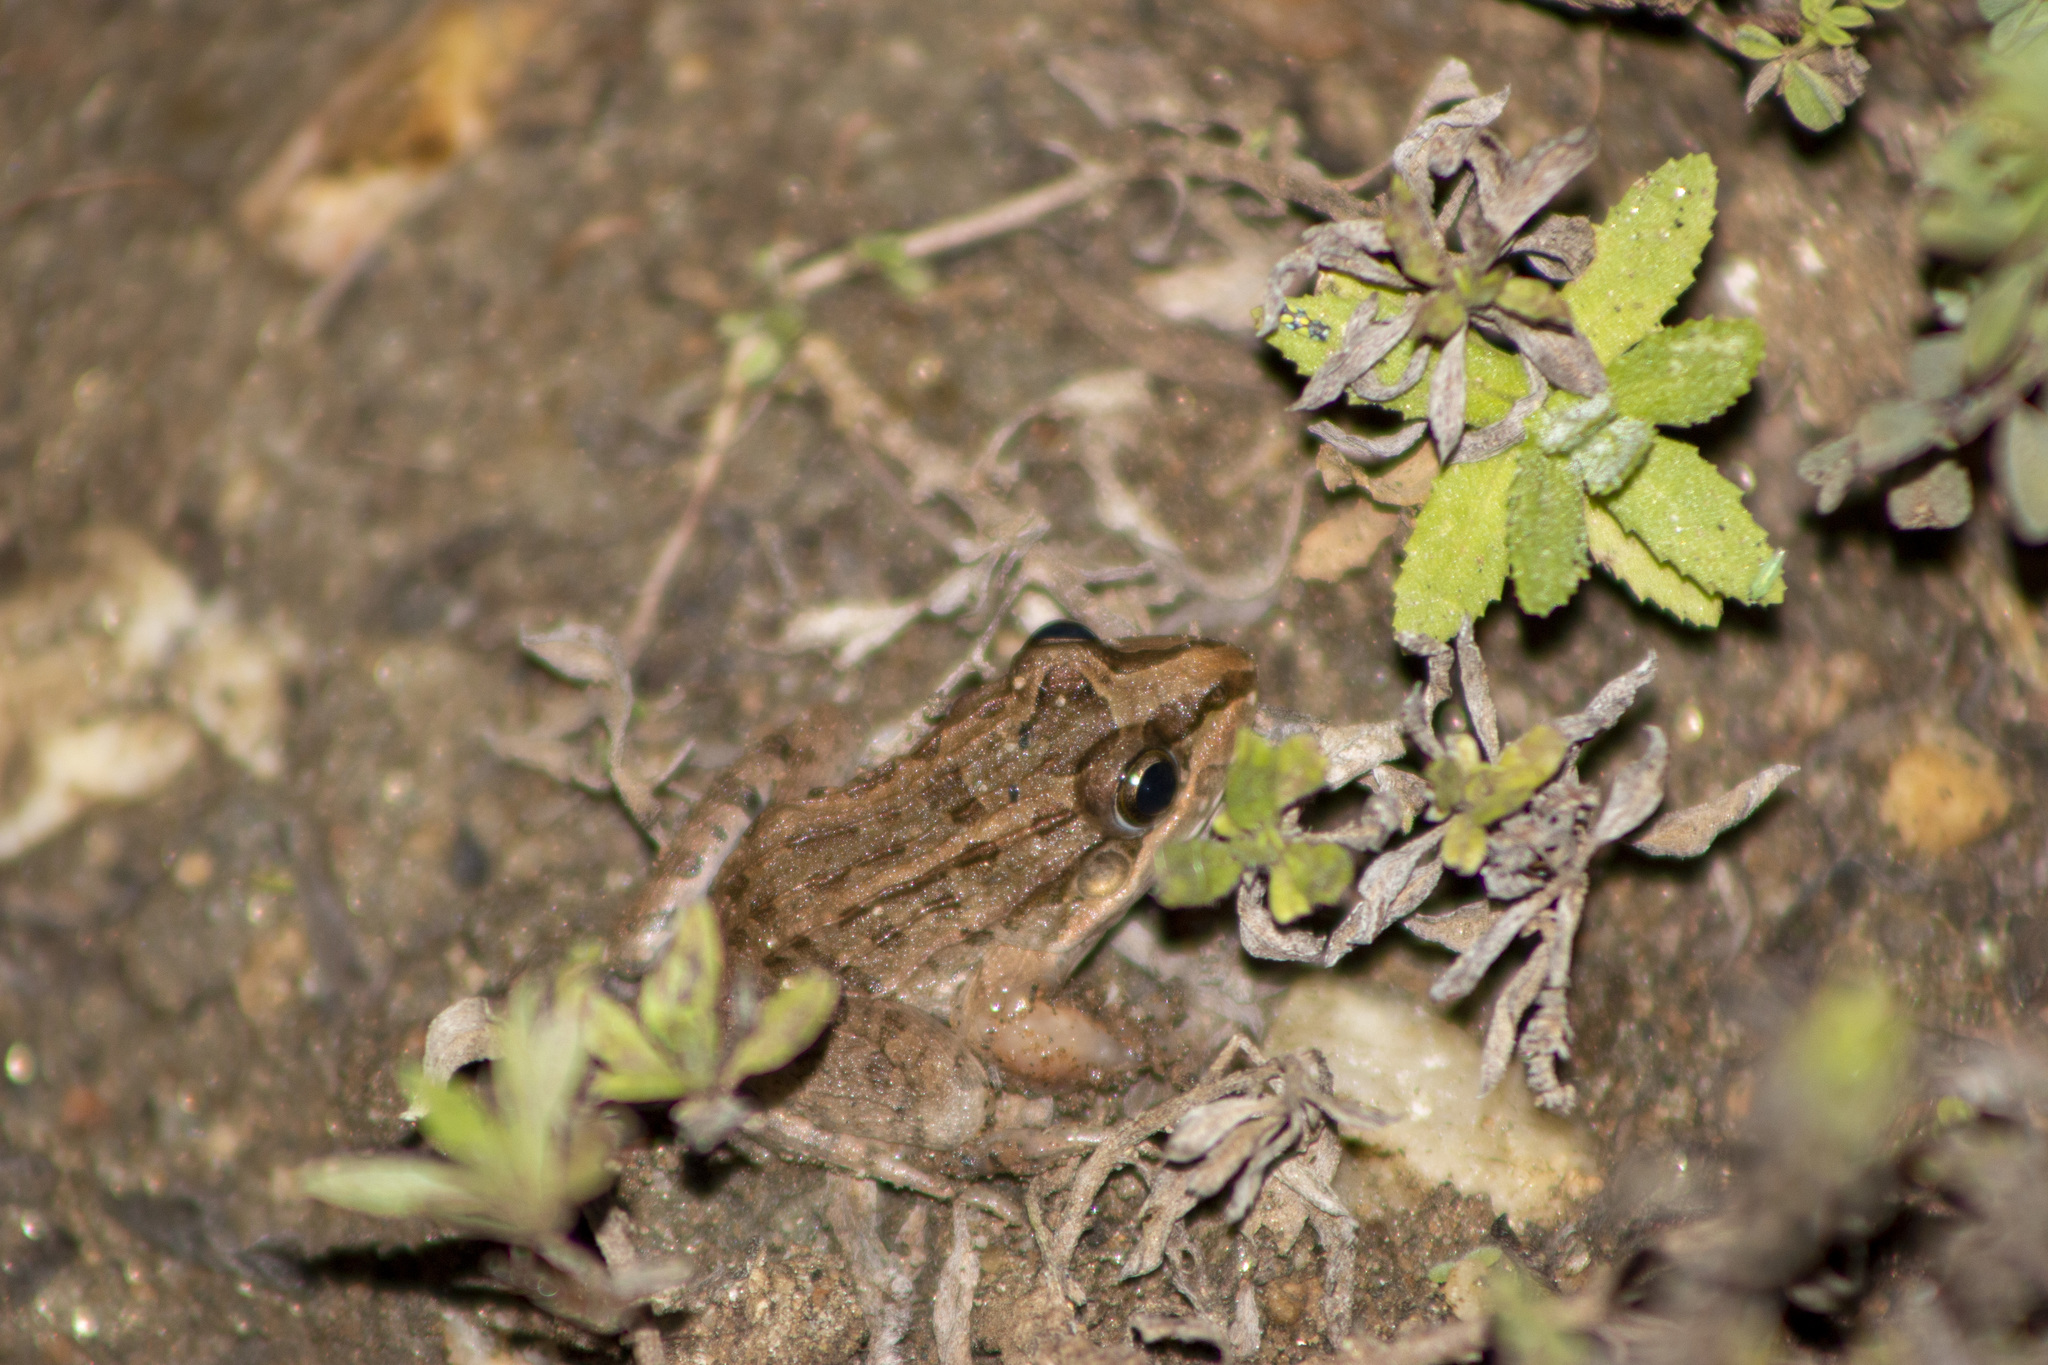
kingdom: Animalia
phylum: Chordata
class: Amphibia
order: Anura
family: Leptodactylidae
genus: Leptodactylus
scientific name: Leptodactylus macrosternum
